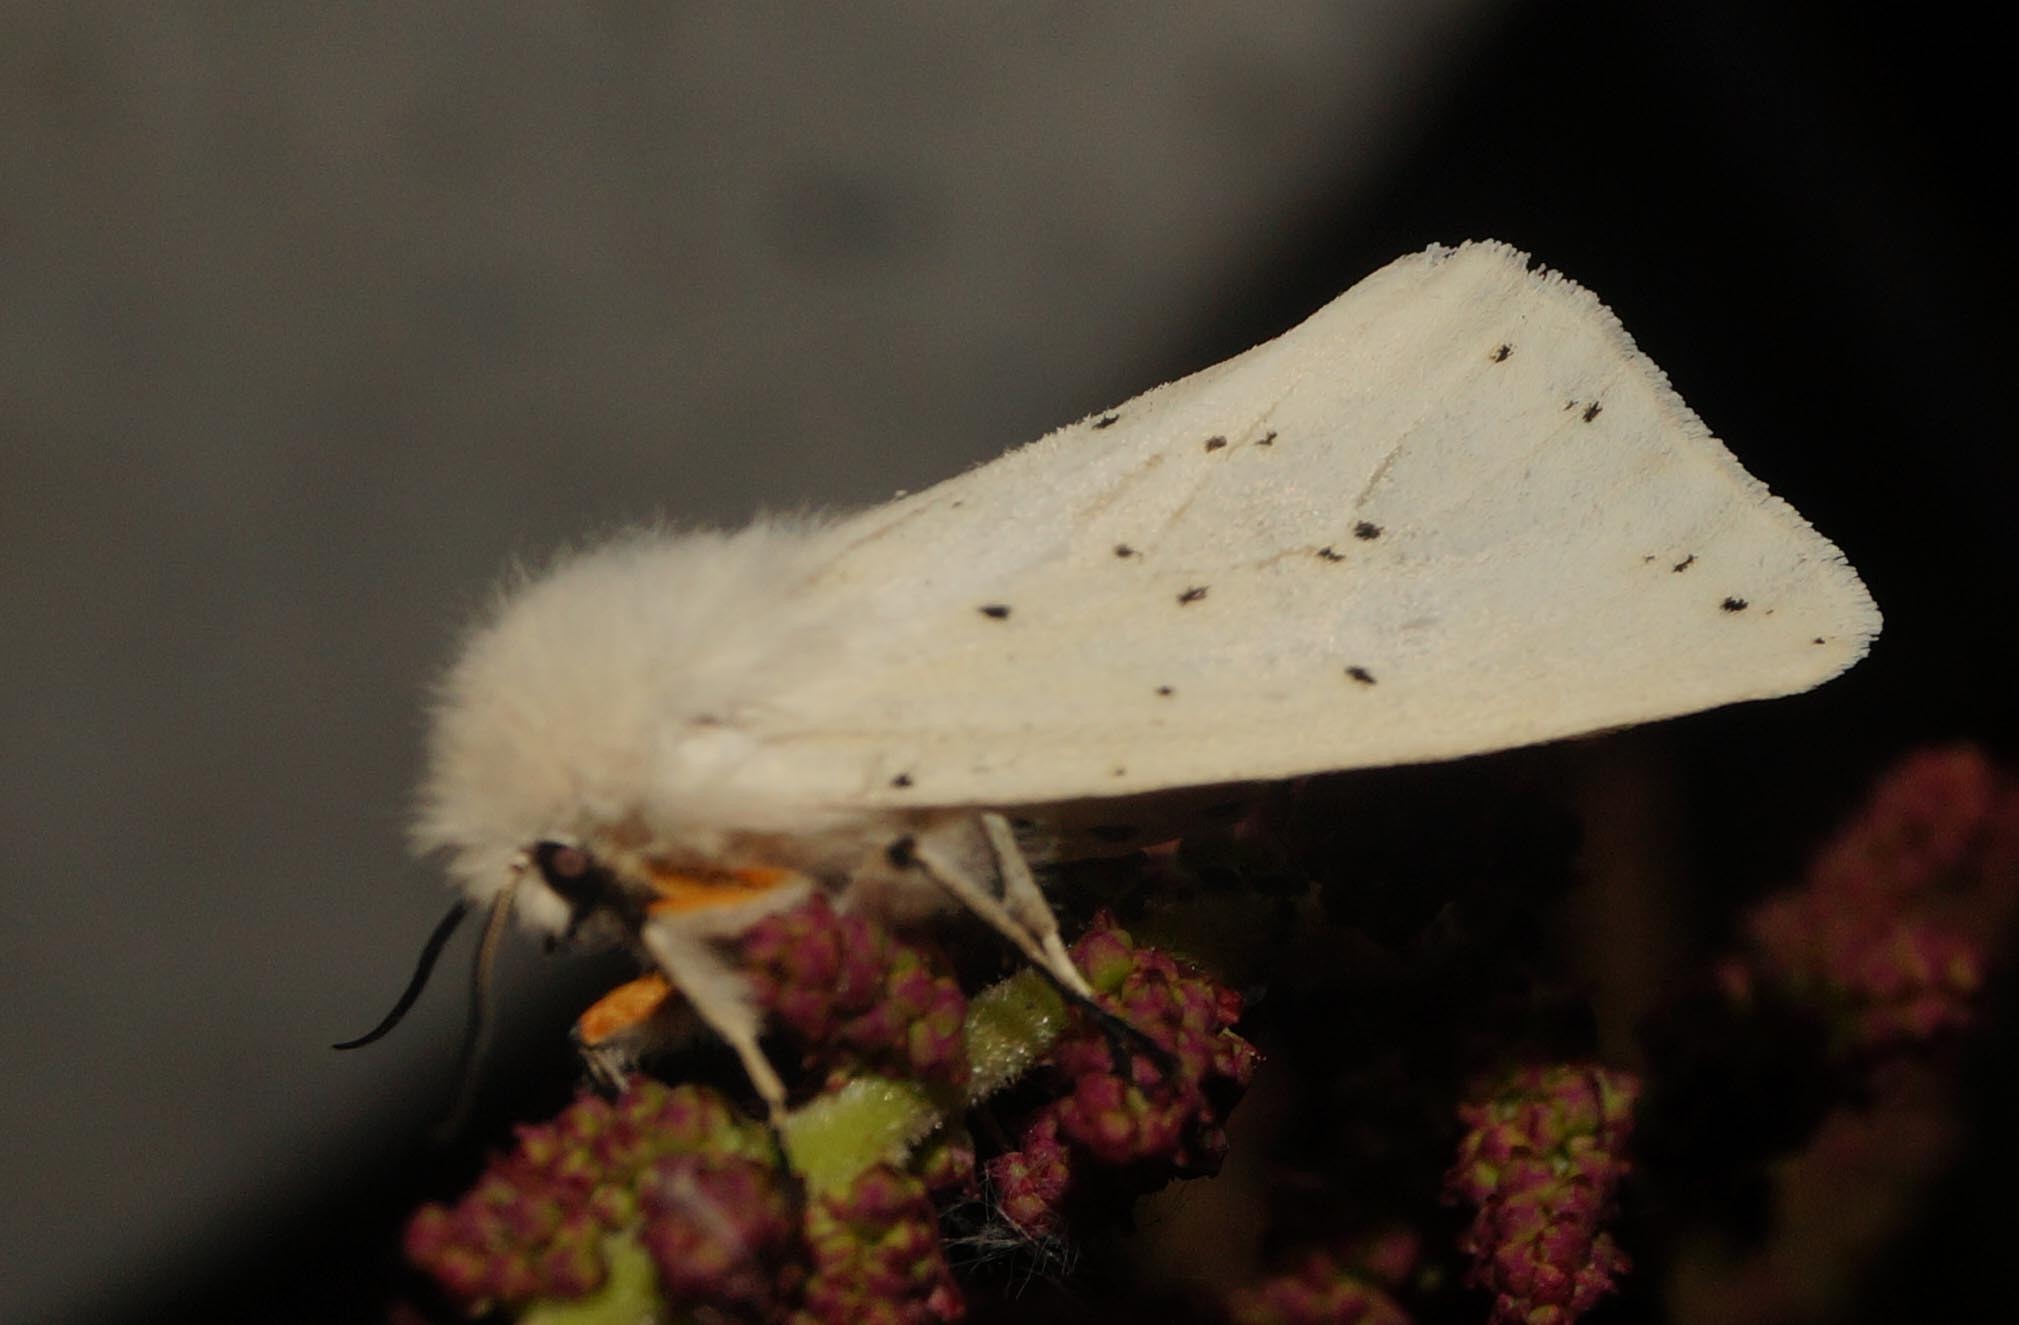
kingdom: Animalia
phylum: Arthropoda
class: Insecta
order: Lepidoptera
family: Erebidae
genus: Spilosoma
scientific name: Spilosoma lubricipeda
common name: White ermine
